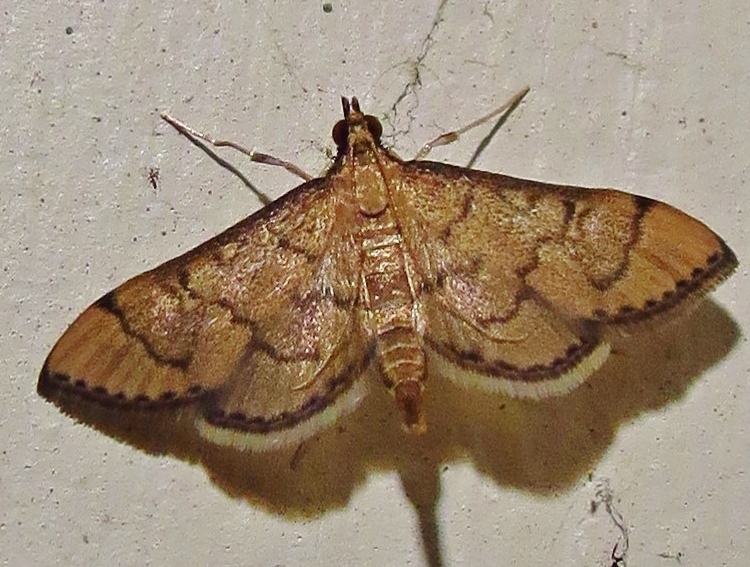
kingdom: Animalia
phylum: Arthropoda
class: Insecta
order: Lepidoptera
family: Crambidae
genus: Lamprosema
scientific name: Lamprosema Blepharomastix ranalis
